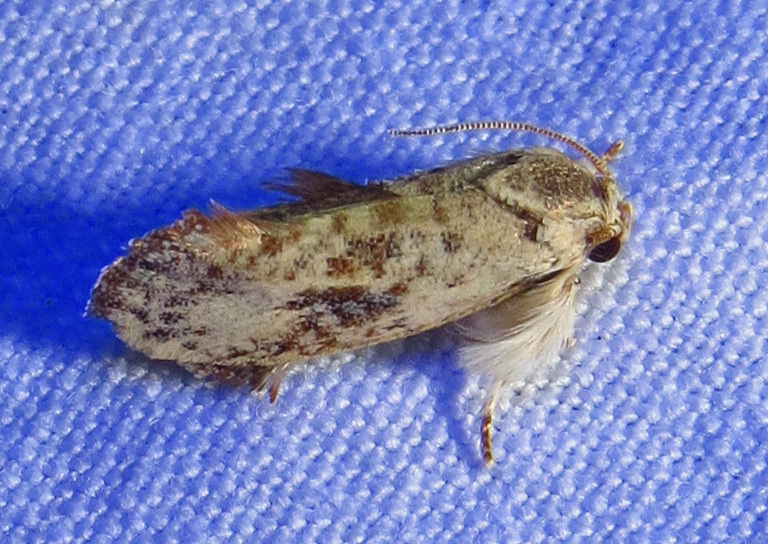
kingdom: Animalia
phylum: Arthropoda
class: Insecta
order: Lepidoptera
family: Tineidae
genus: Acrolophus
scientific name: Acrolophus mycetophagus
